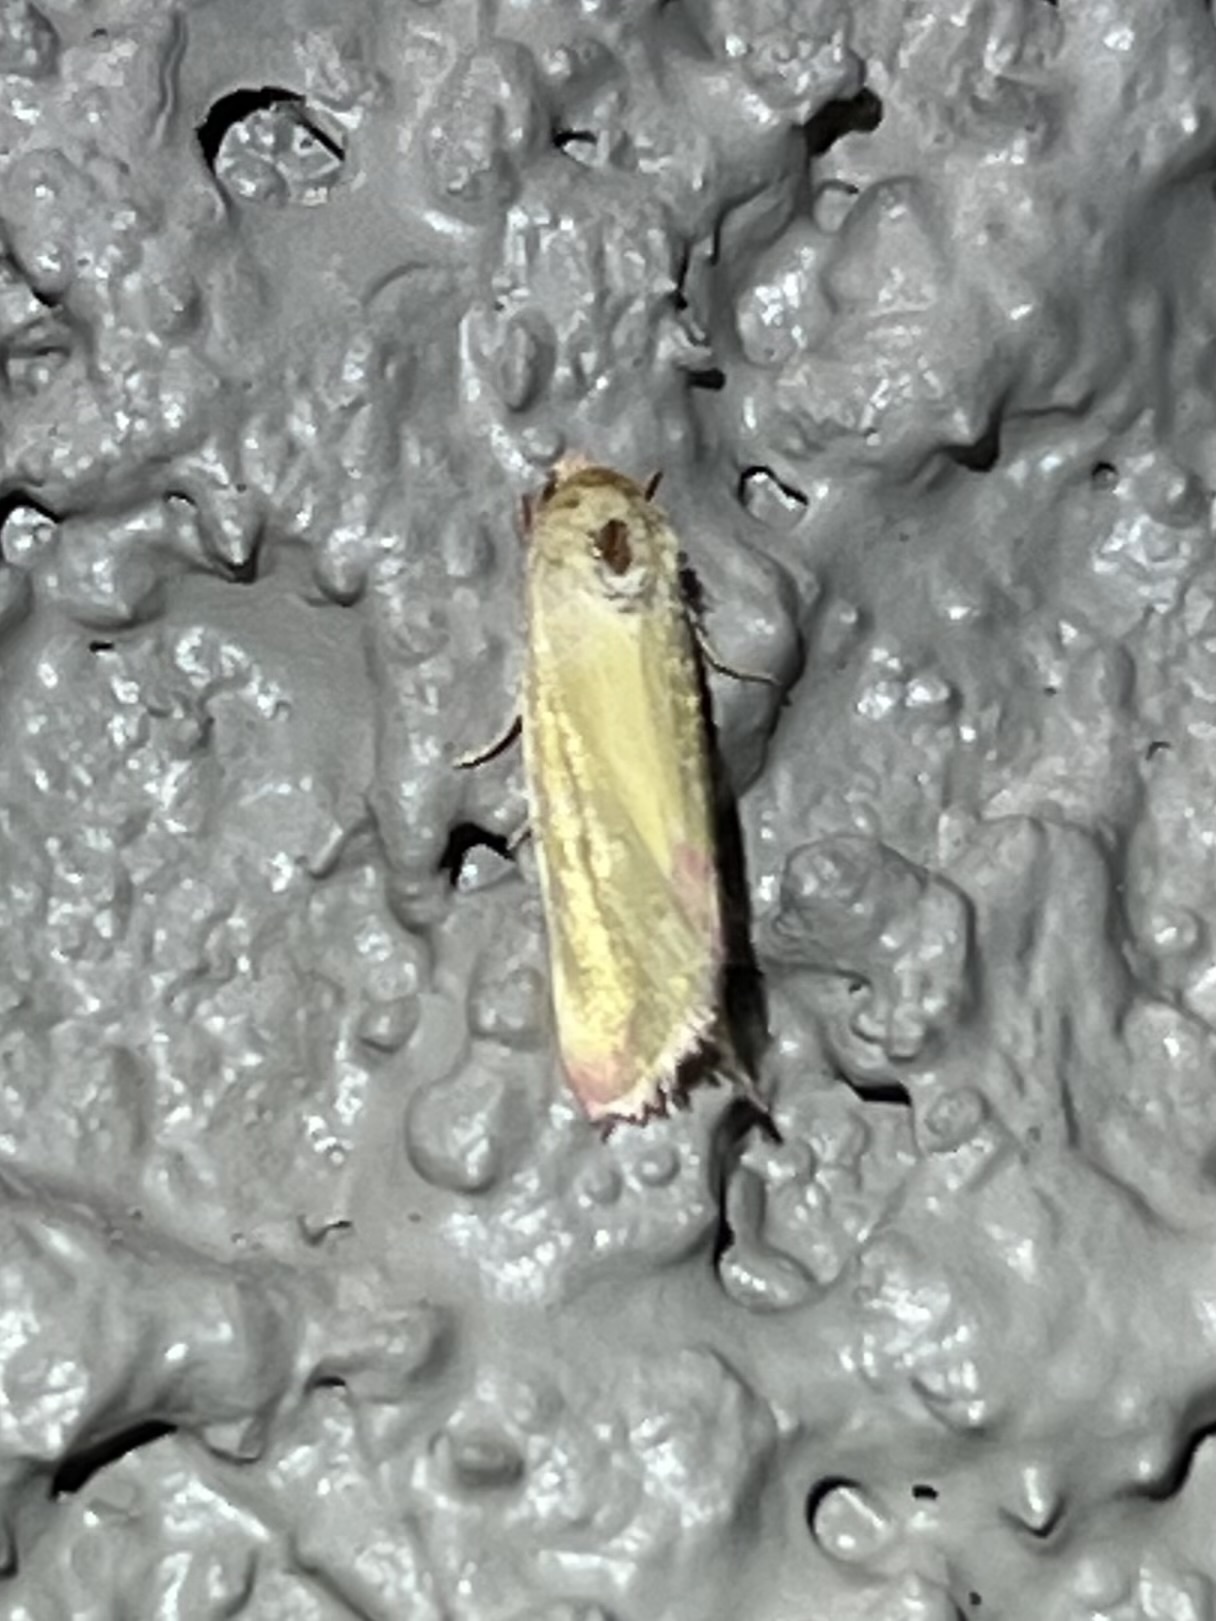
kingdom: Animalia
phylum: Arthropoda
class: Insecta
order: Lepidoptera
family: Noctuidae
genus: Heliocheilus
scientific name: Heliocheilus toralis
